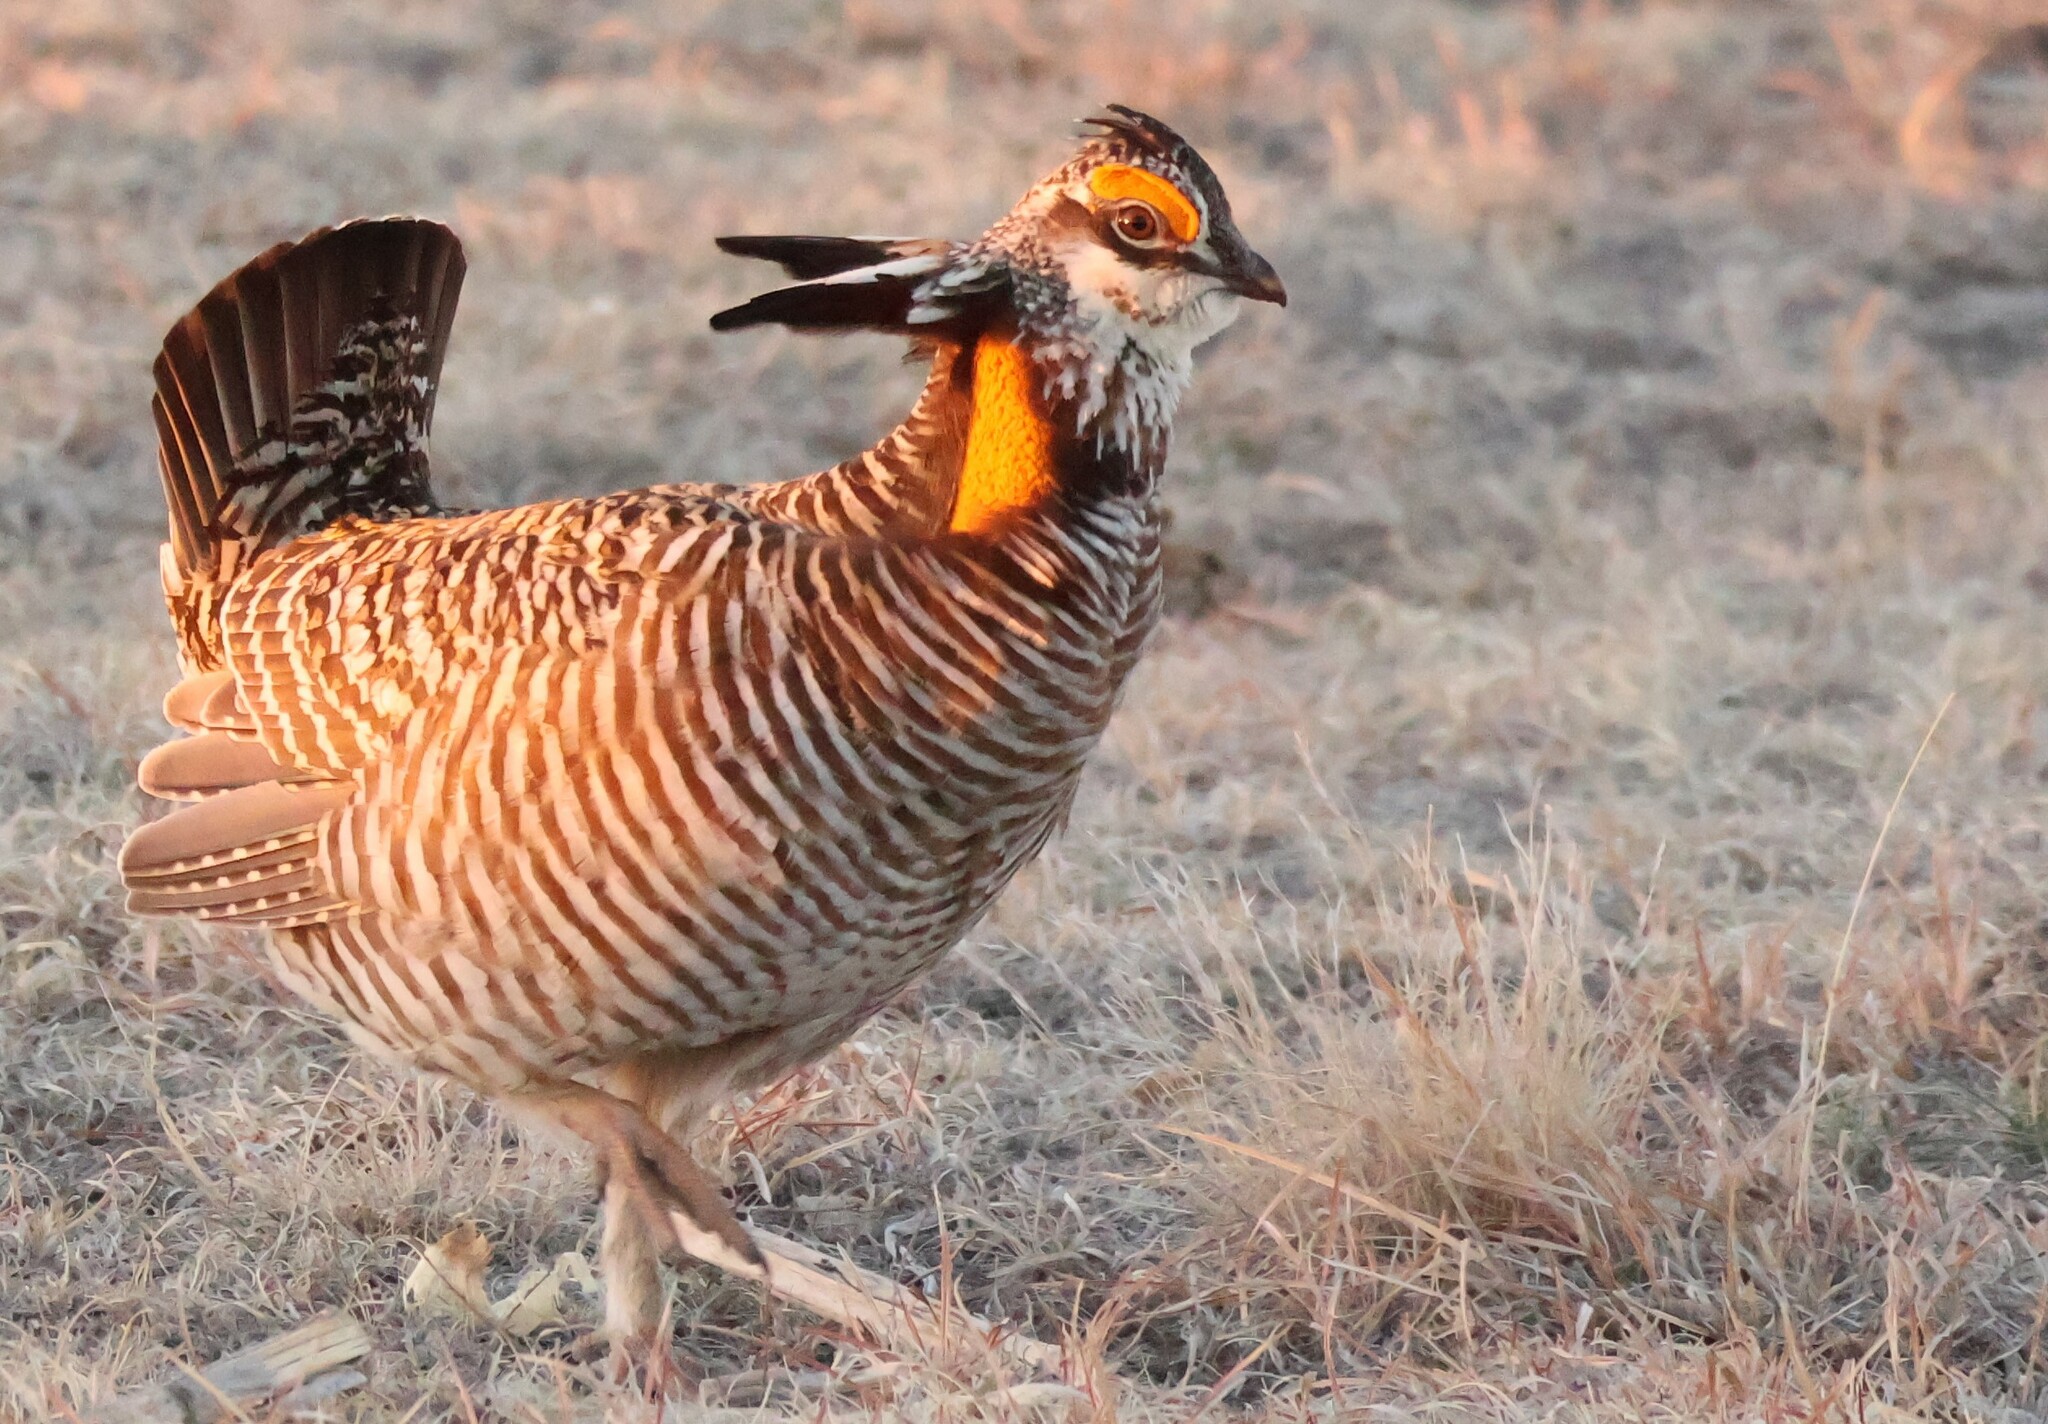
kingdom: Animalia
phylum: Chordata
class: Aves
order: Galliformes
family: Phasianidae
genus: Tympanuchus
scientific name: Tympanuchus cupido
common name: Greater prairie chicken
